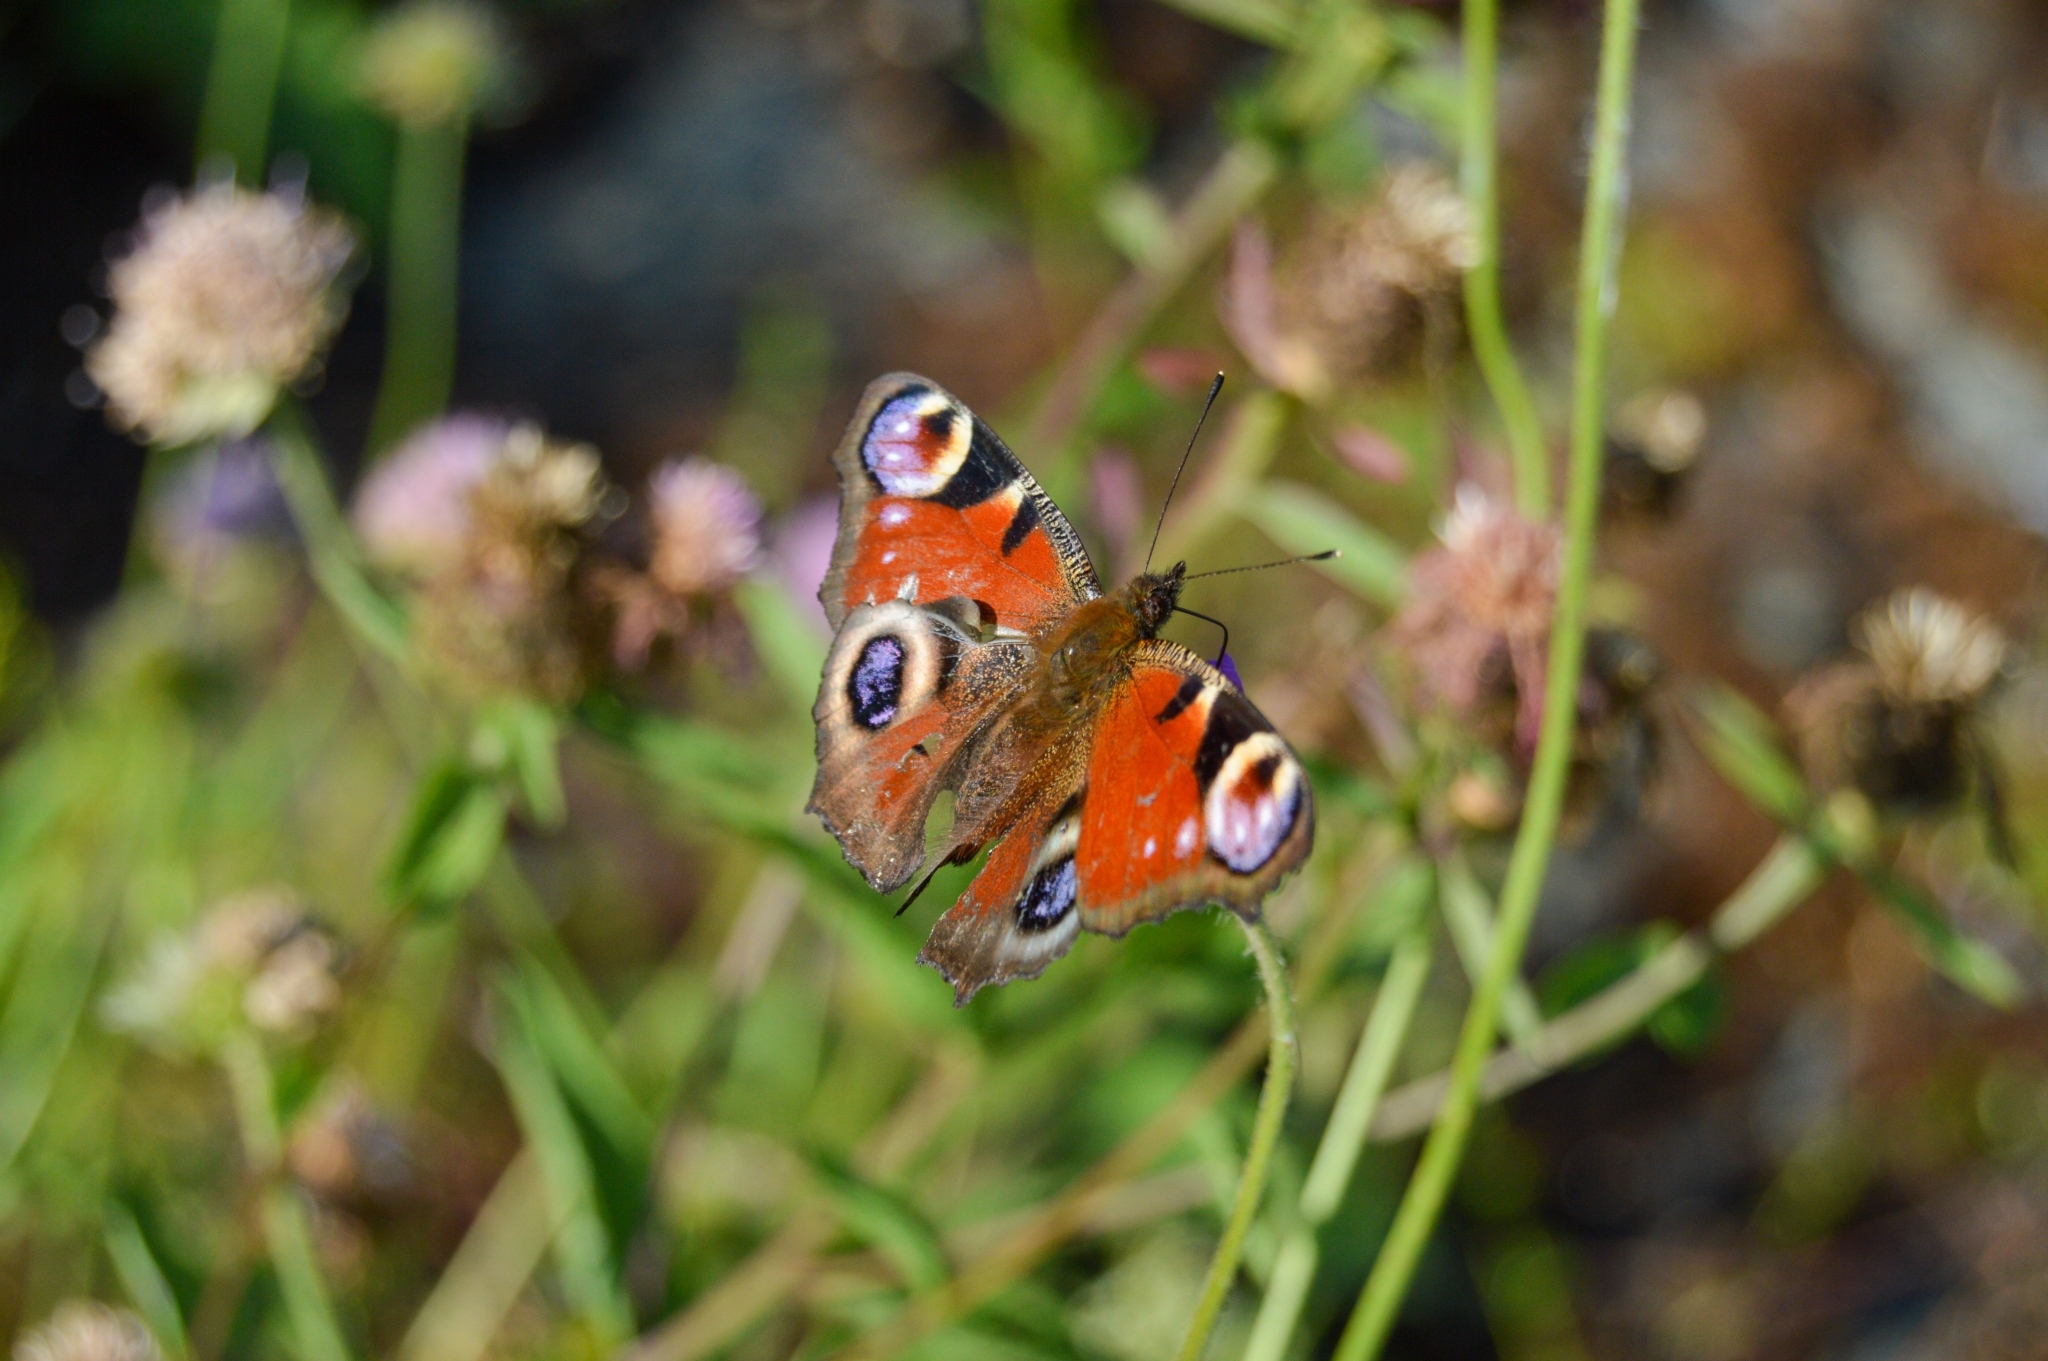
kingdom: Animalia
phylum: Arthropoda
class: Insecta
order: Lepidoptera
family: Nymphalidae
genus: Aglais
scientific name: Aglais io
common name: Peacock
